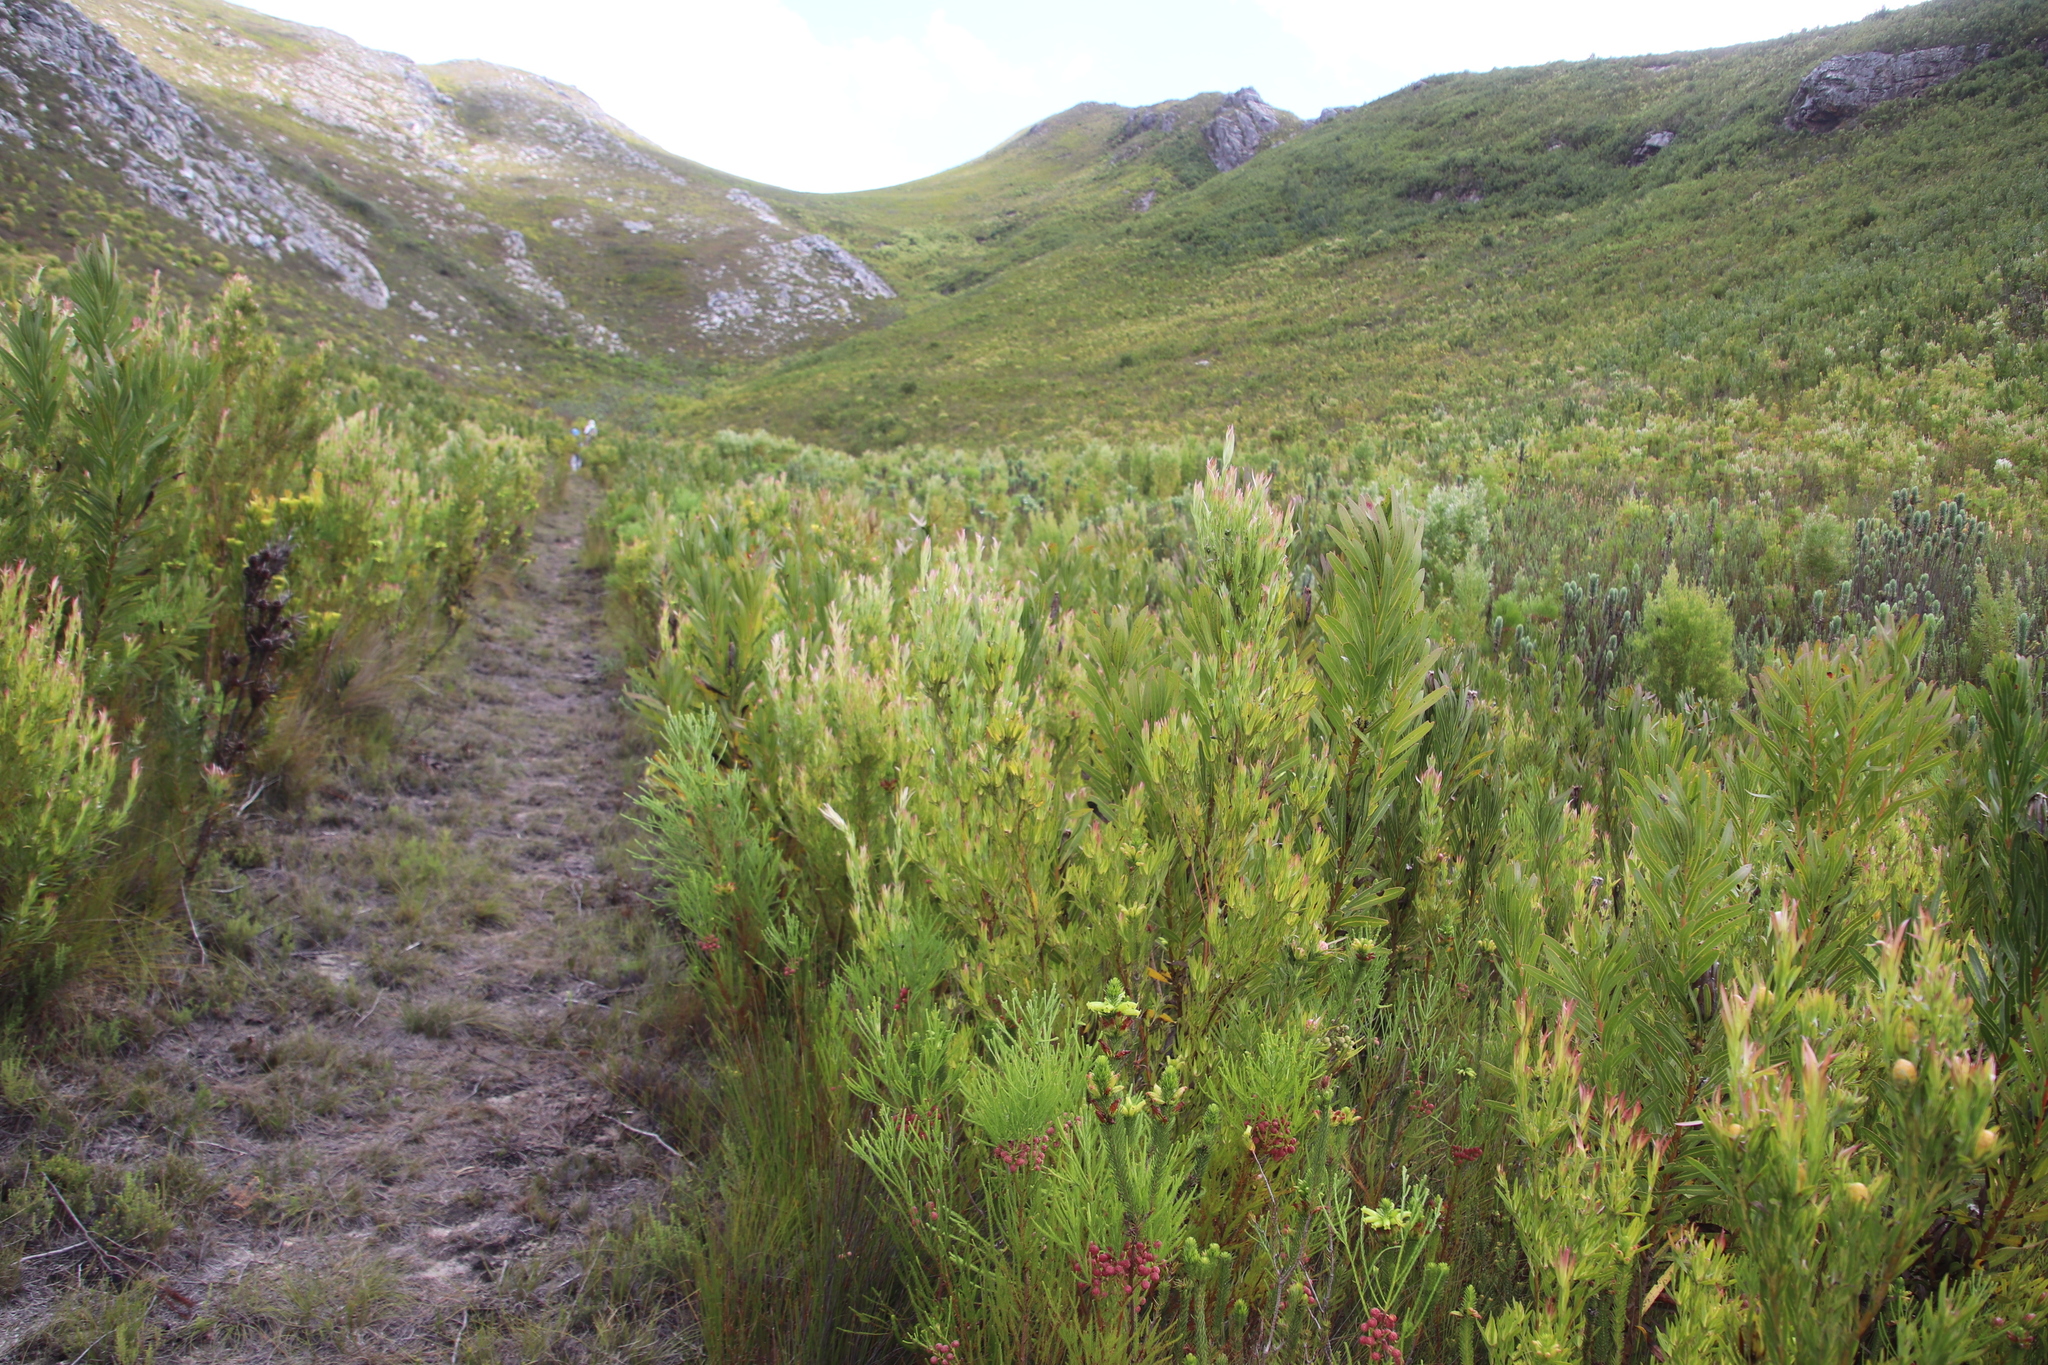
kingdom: Plantae
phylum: Tracheophyta
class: Magnoliopsida
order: Proteales
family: Proteaceae
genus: Leucadendron
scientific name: Leucadendron xanthoconus
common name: Sickle-leaf conebush
